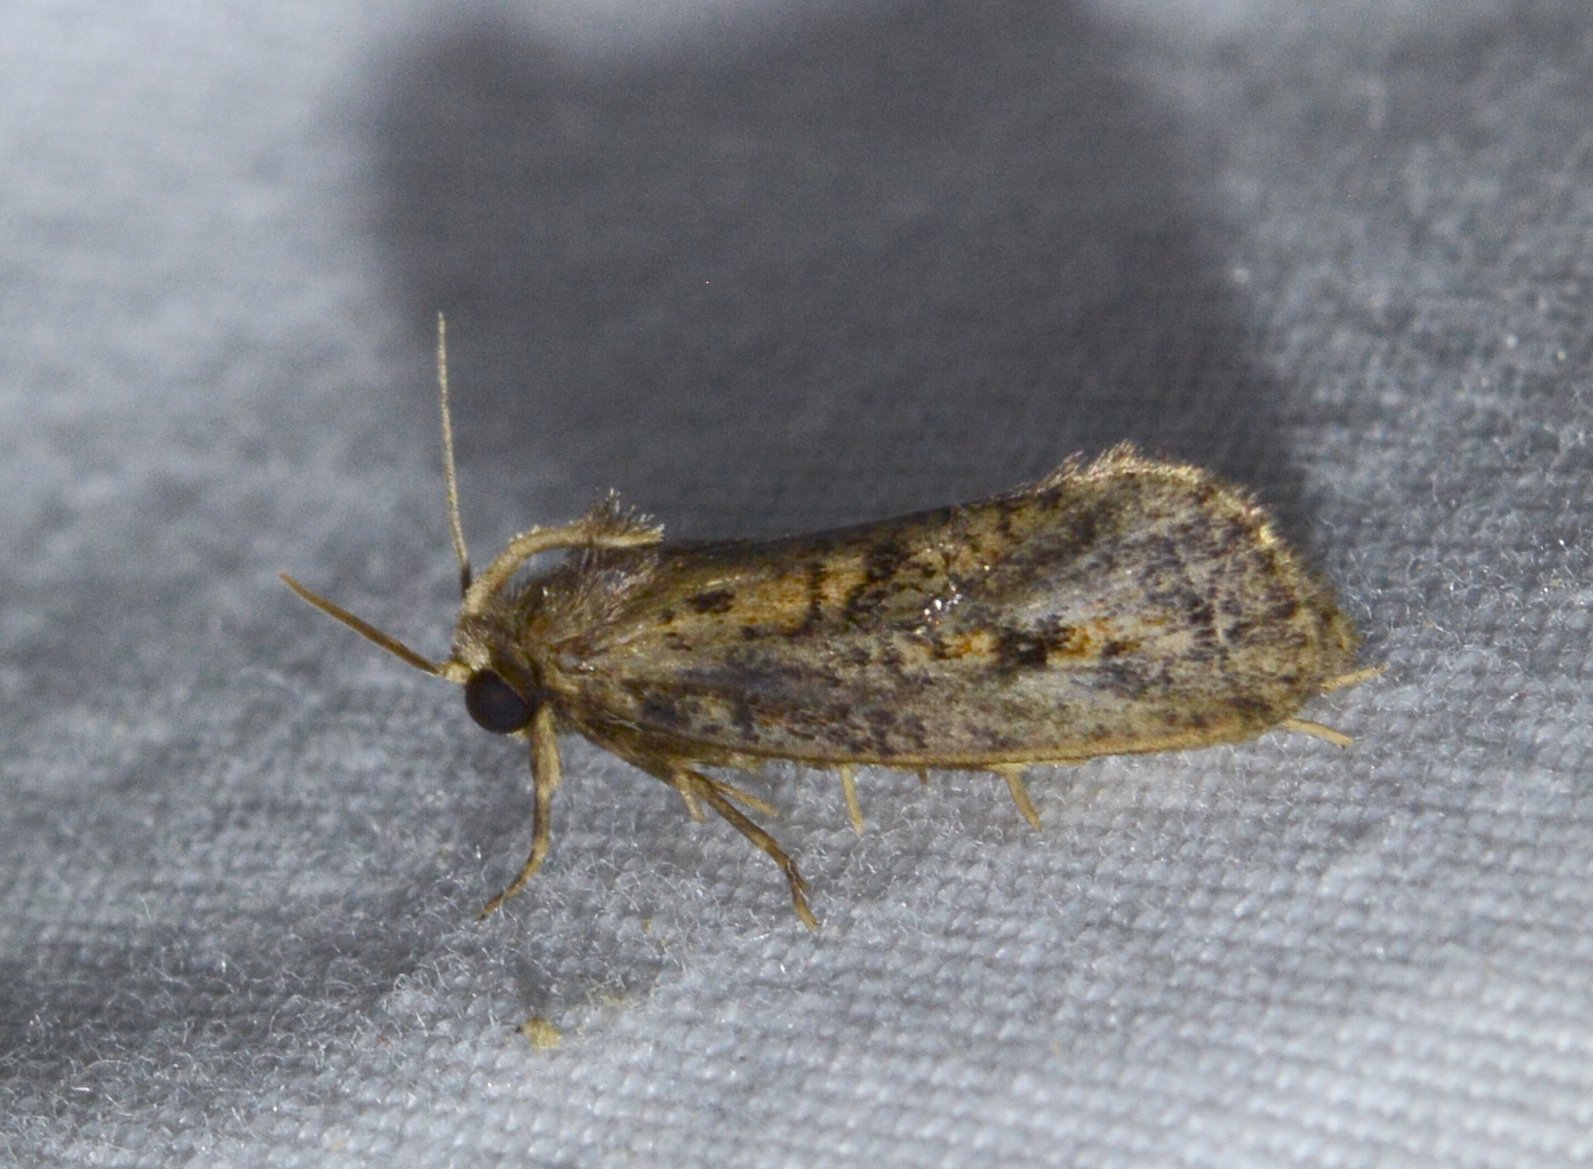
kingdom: Animalia
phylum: Arthropoda
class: Insecta
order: Lepidoptera
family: Tineidae
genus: Acrolophus
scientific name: Acrolophus popeanella
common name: Clemens' grass tubeworm moth
